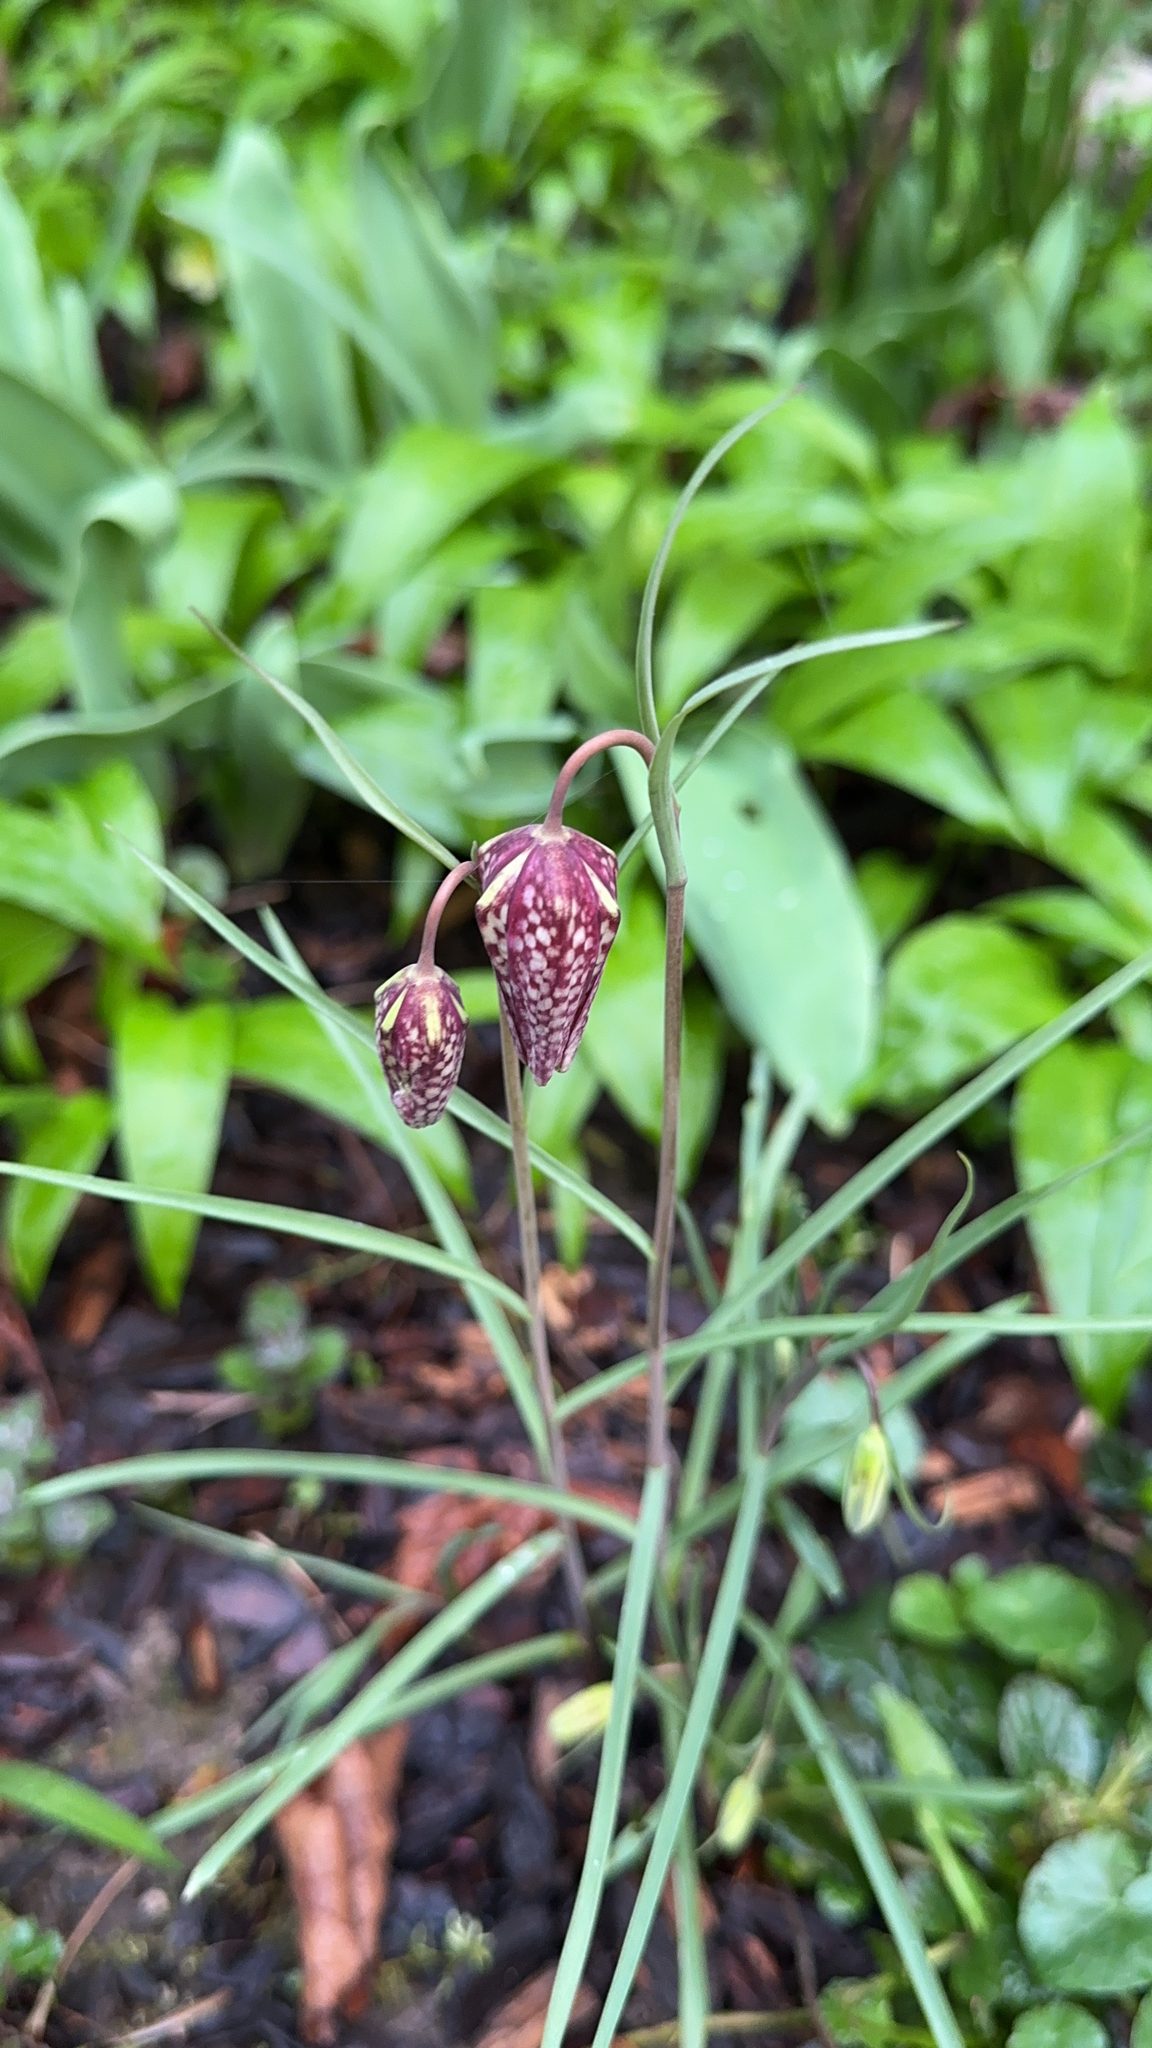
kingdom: Plantae
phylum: Tracheophyta
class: Liliopsida
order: Liliales
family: Liliaceae
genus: Fritillaria
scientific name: Fritillaria meleagris
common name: Fritillary
